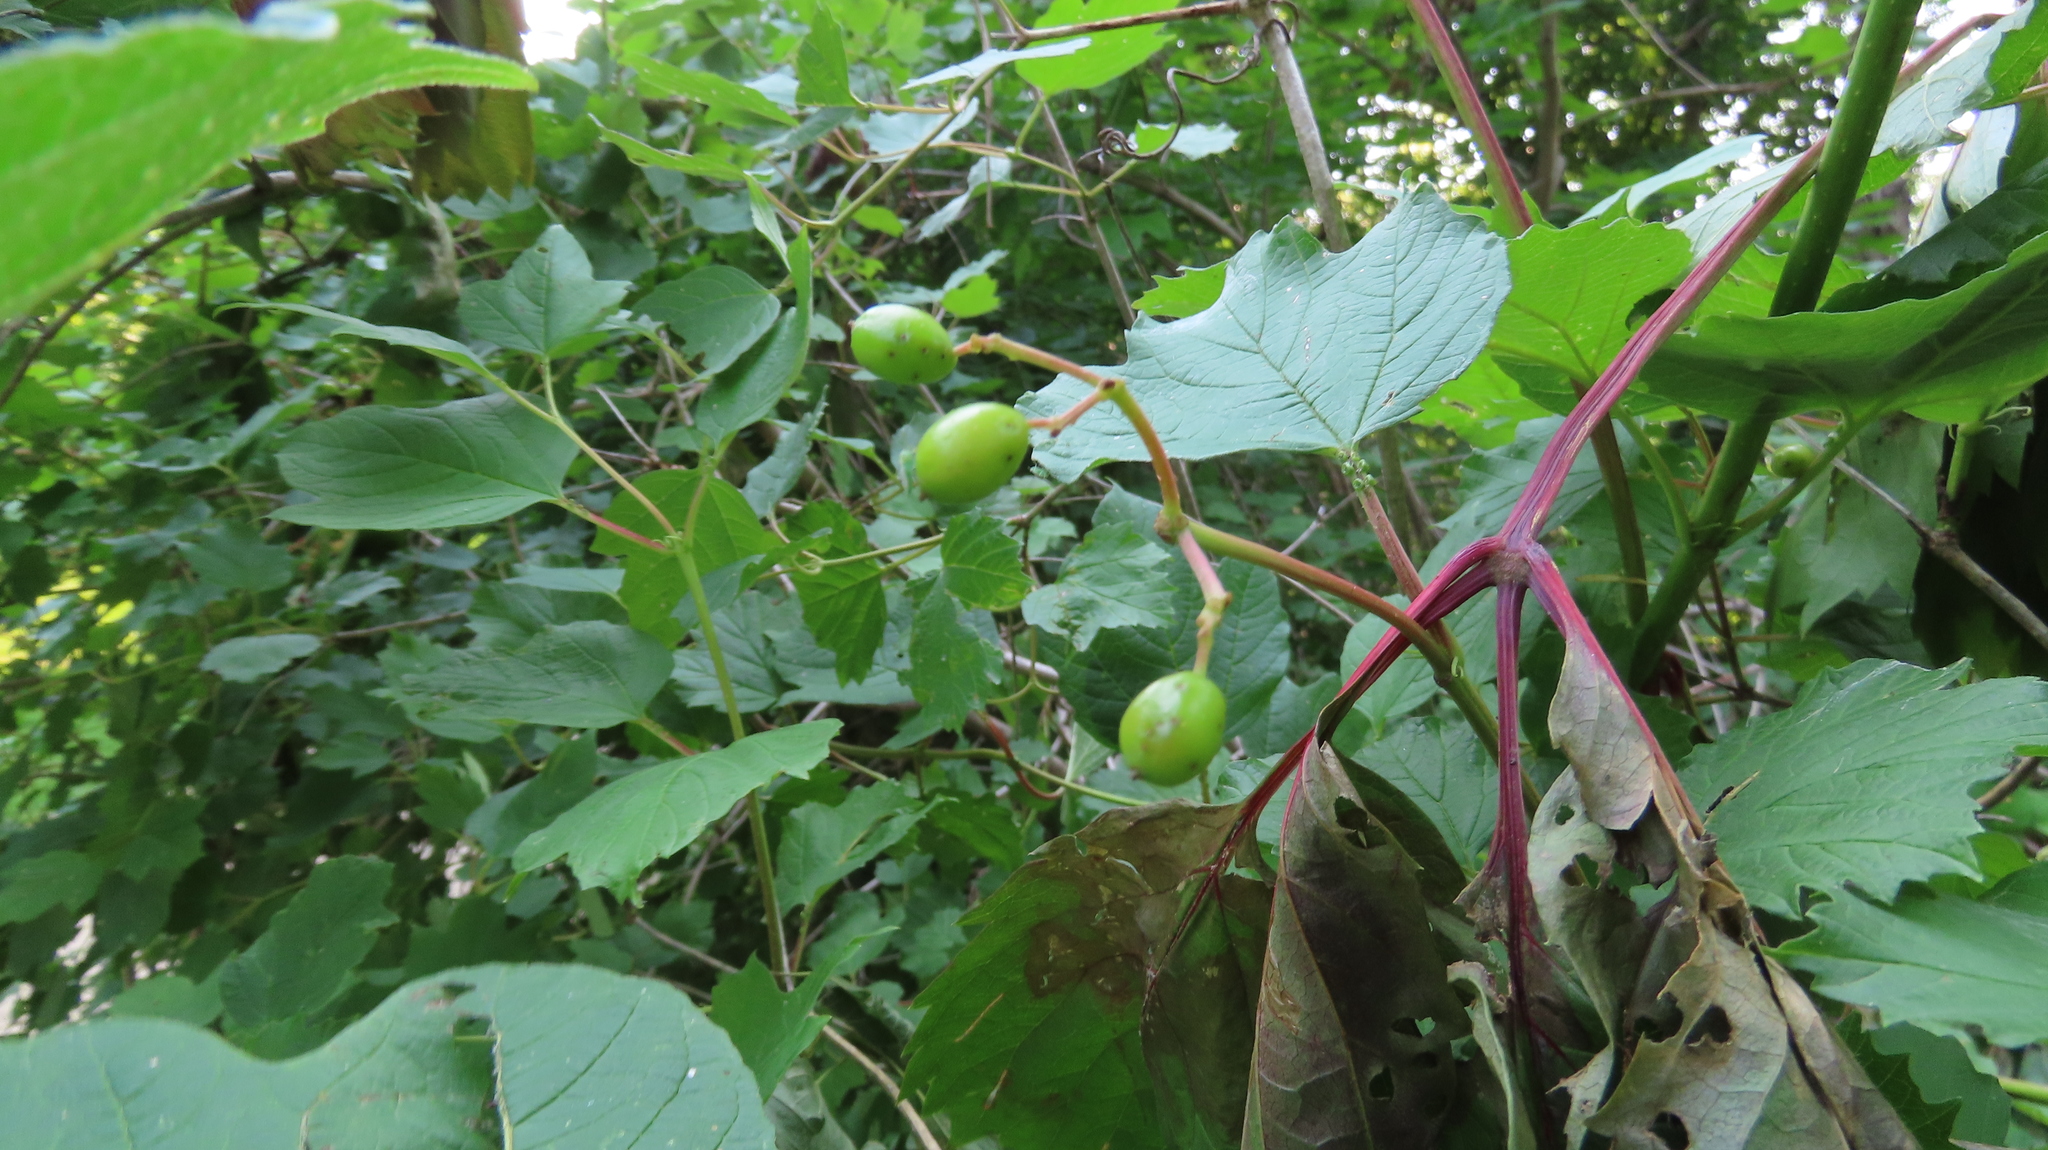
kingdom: Plantae
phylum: Tracheophyta
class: Magnoliopsida
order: Dipsacales
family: Viburnaceae
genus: Viburnum
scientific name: Viburnum opulus
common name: Guelder-rose
